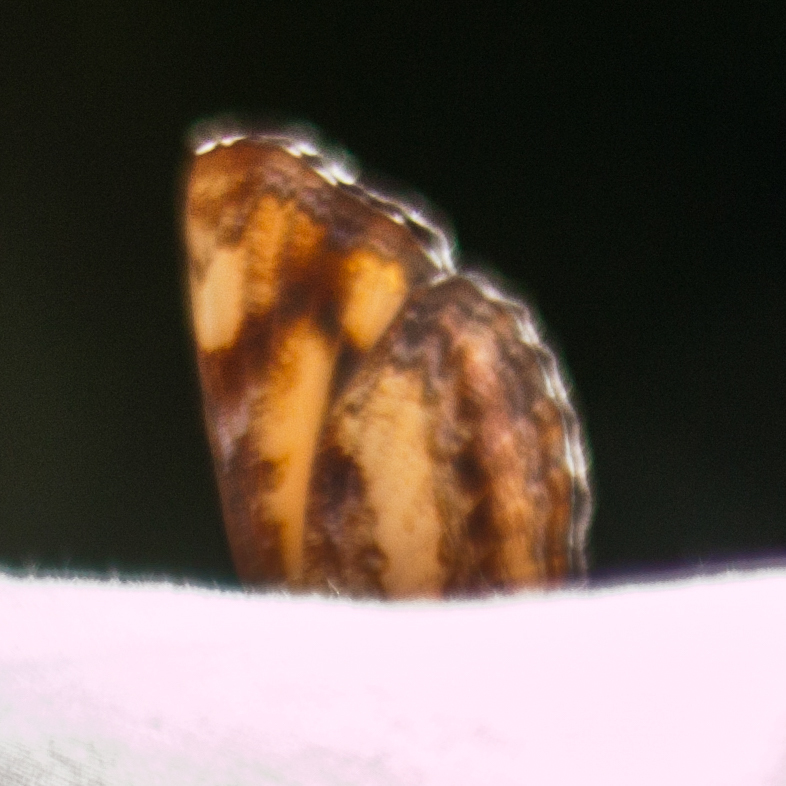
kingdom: Animalia
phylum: Arthropoda
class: Insecta
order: Lepidoptera
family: Nymphalidae
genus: Pantoporia
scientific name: Pantoporia hordonia
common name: Common lascar
